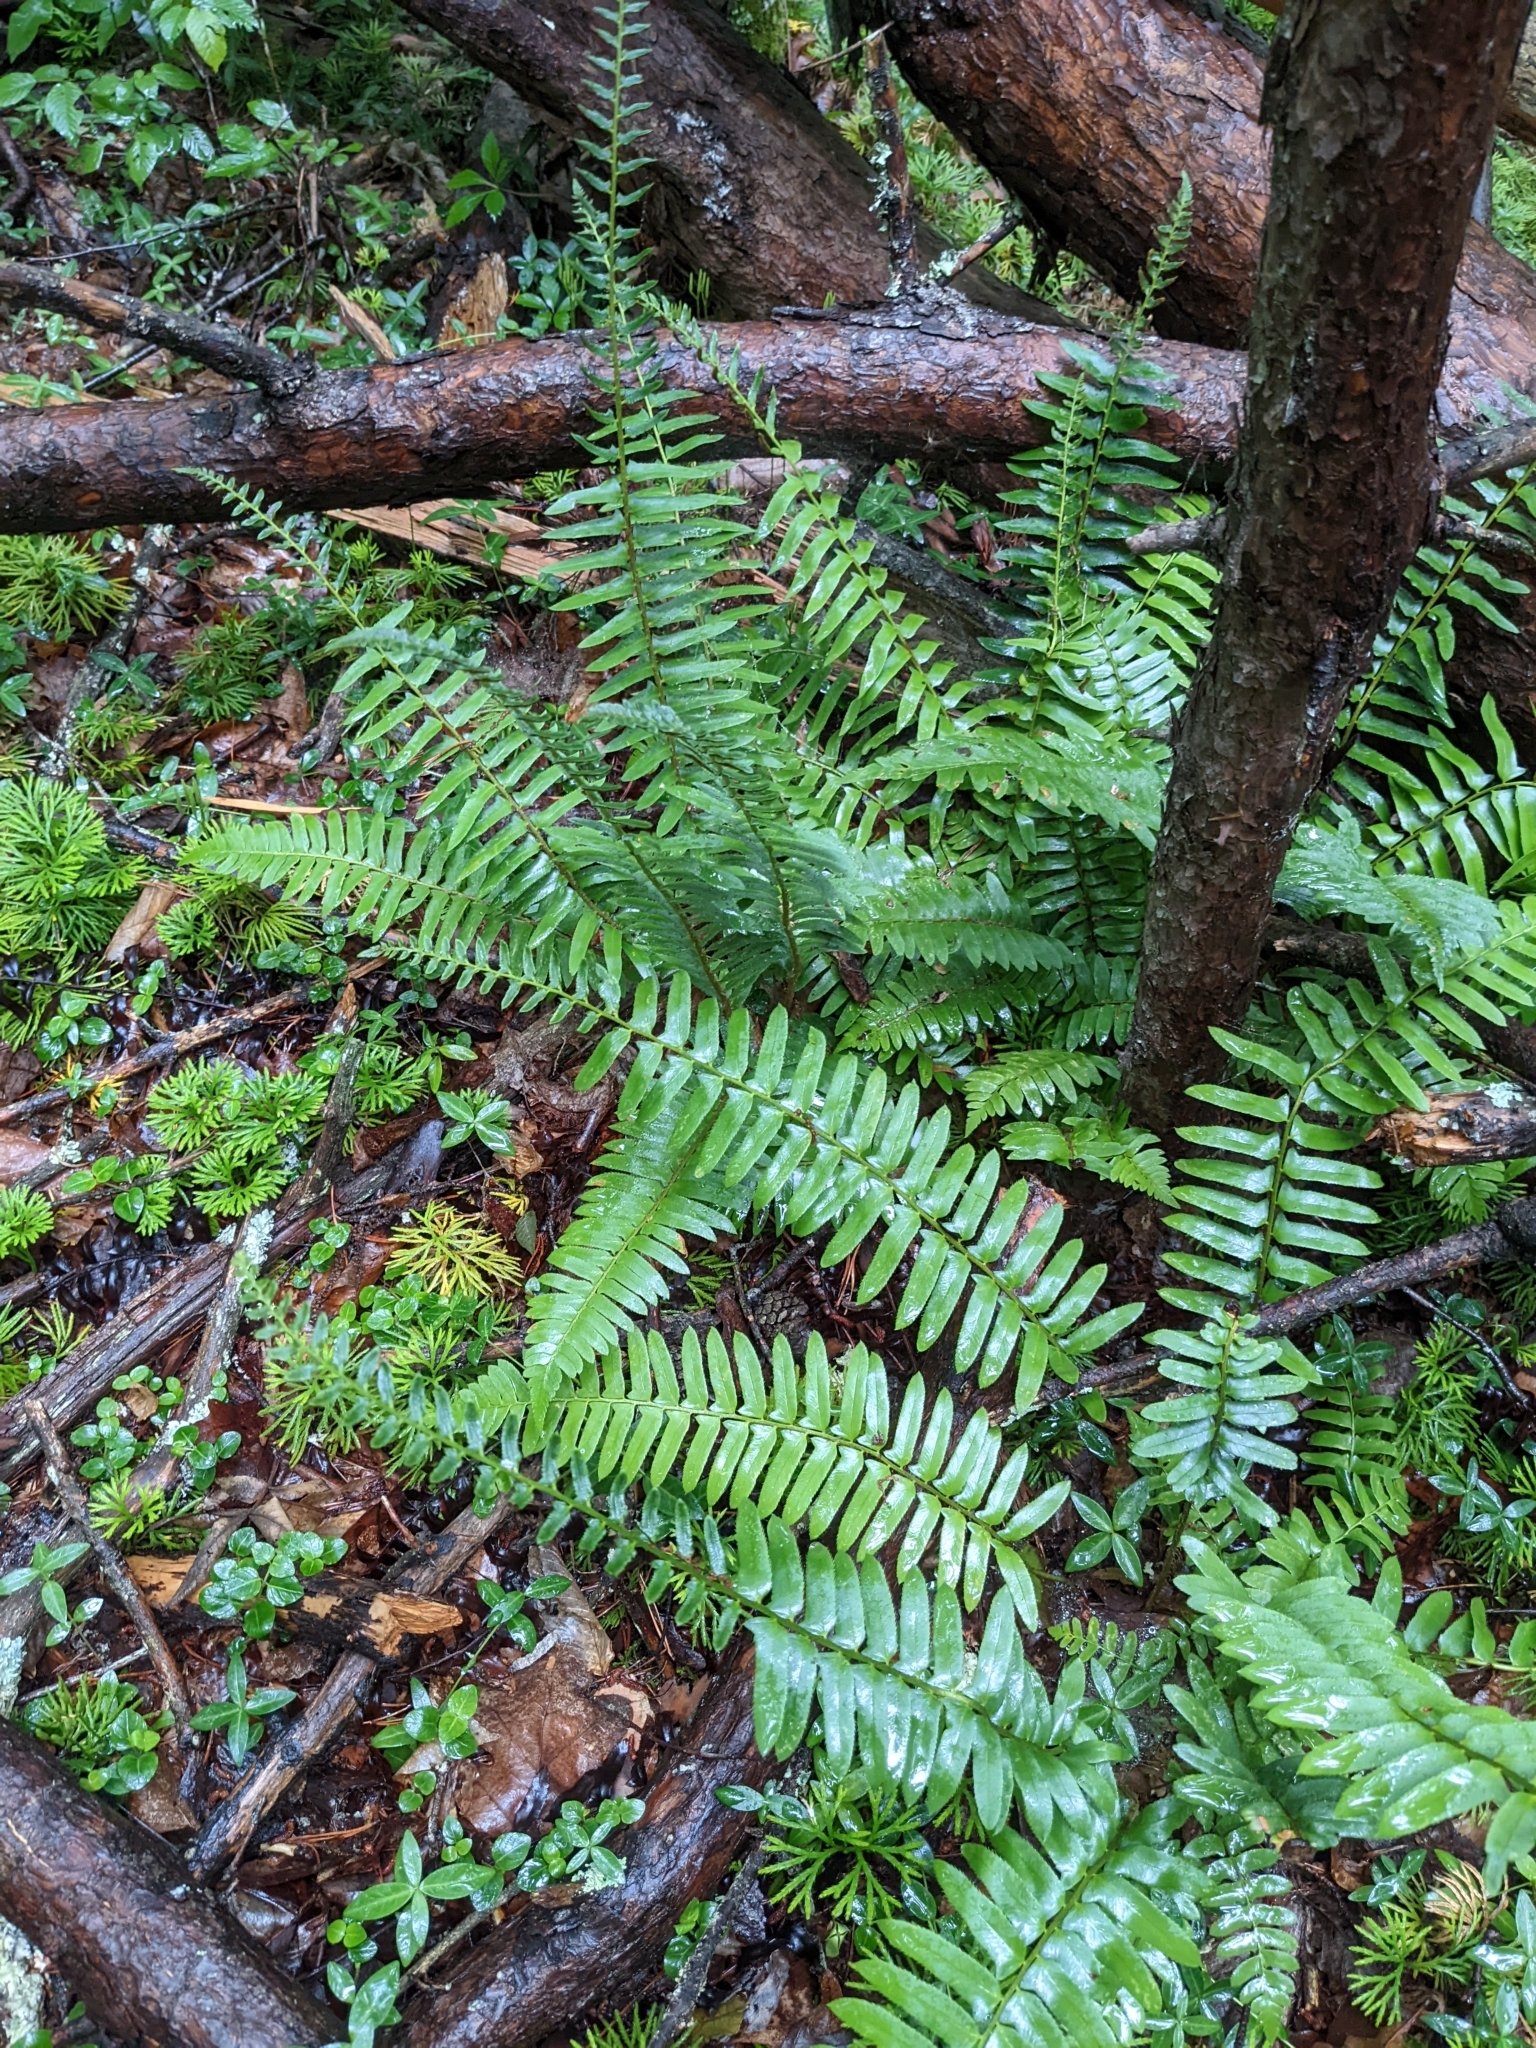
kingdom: Plantae
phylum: Tracheophyta
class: Polypodiopsida
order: Polypodiales
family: Dryopteridaceae
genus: Polystichum
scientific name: Polystichum acrostichoides
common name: Christmas fern
